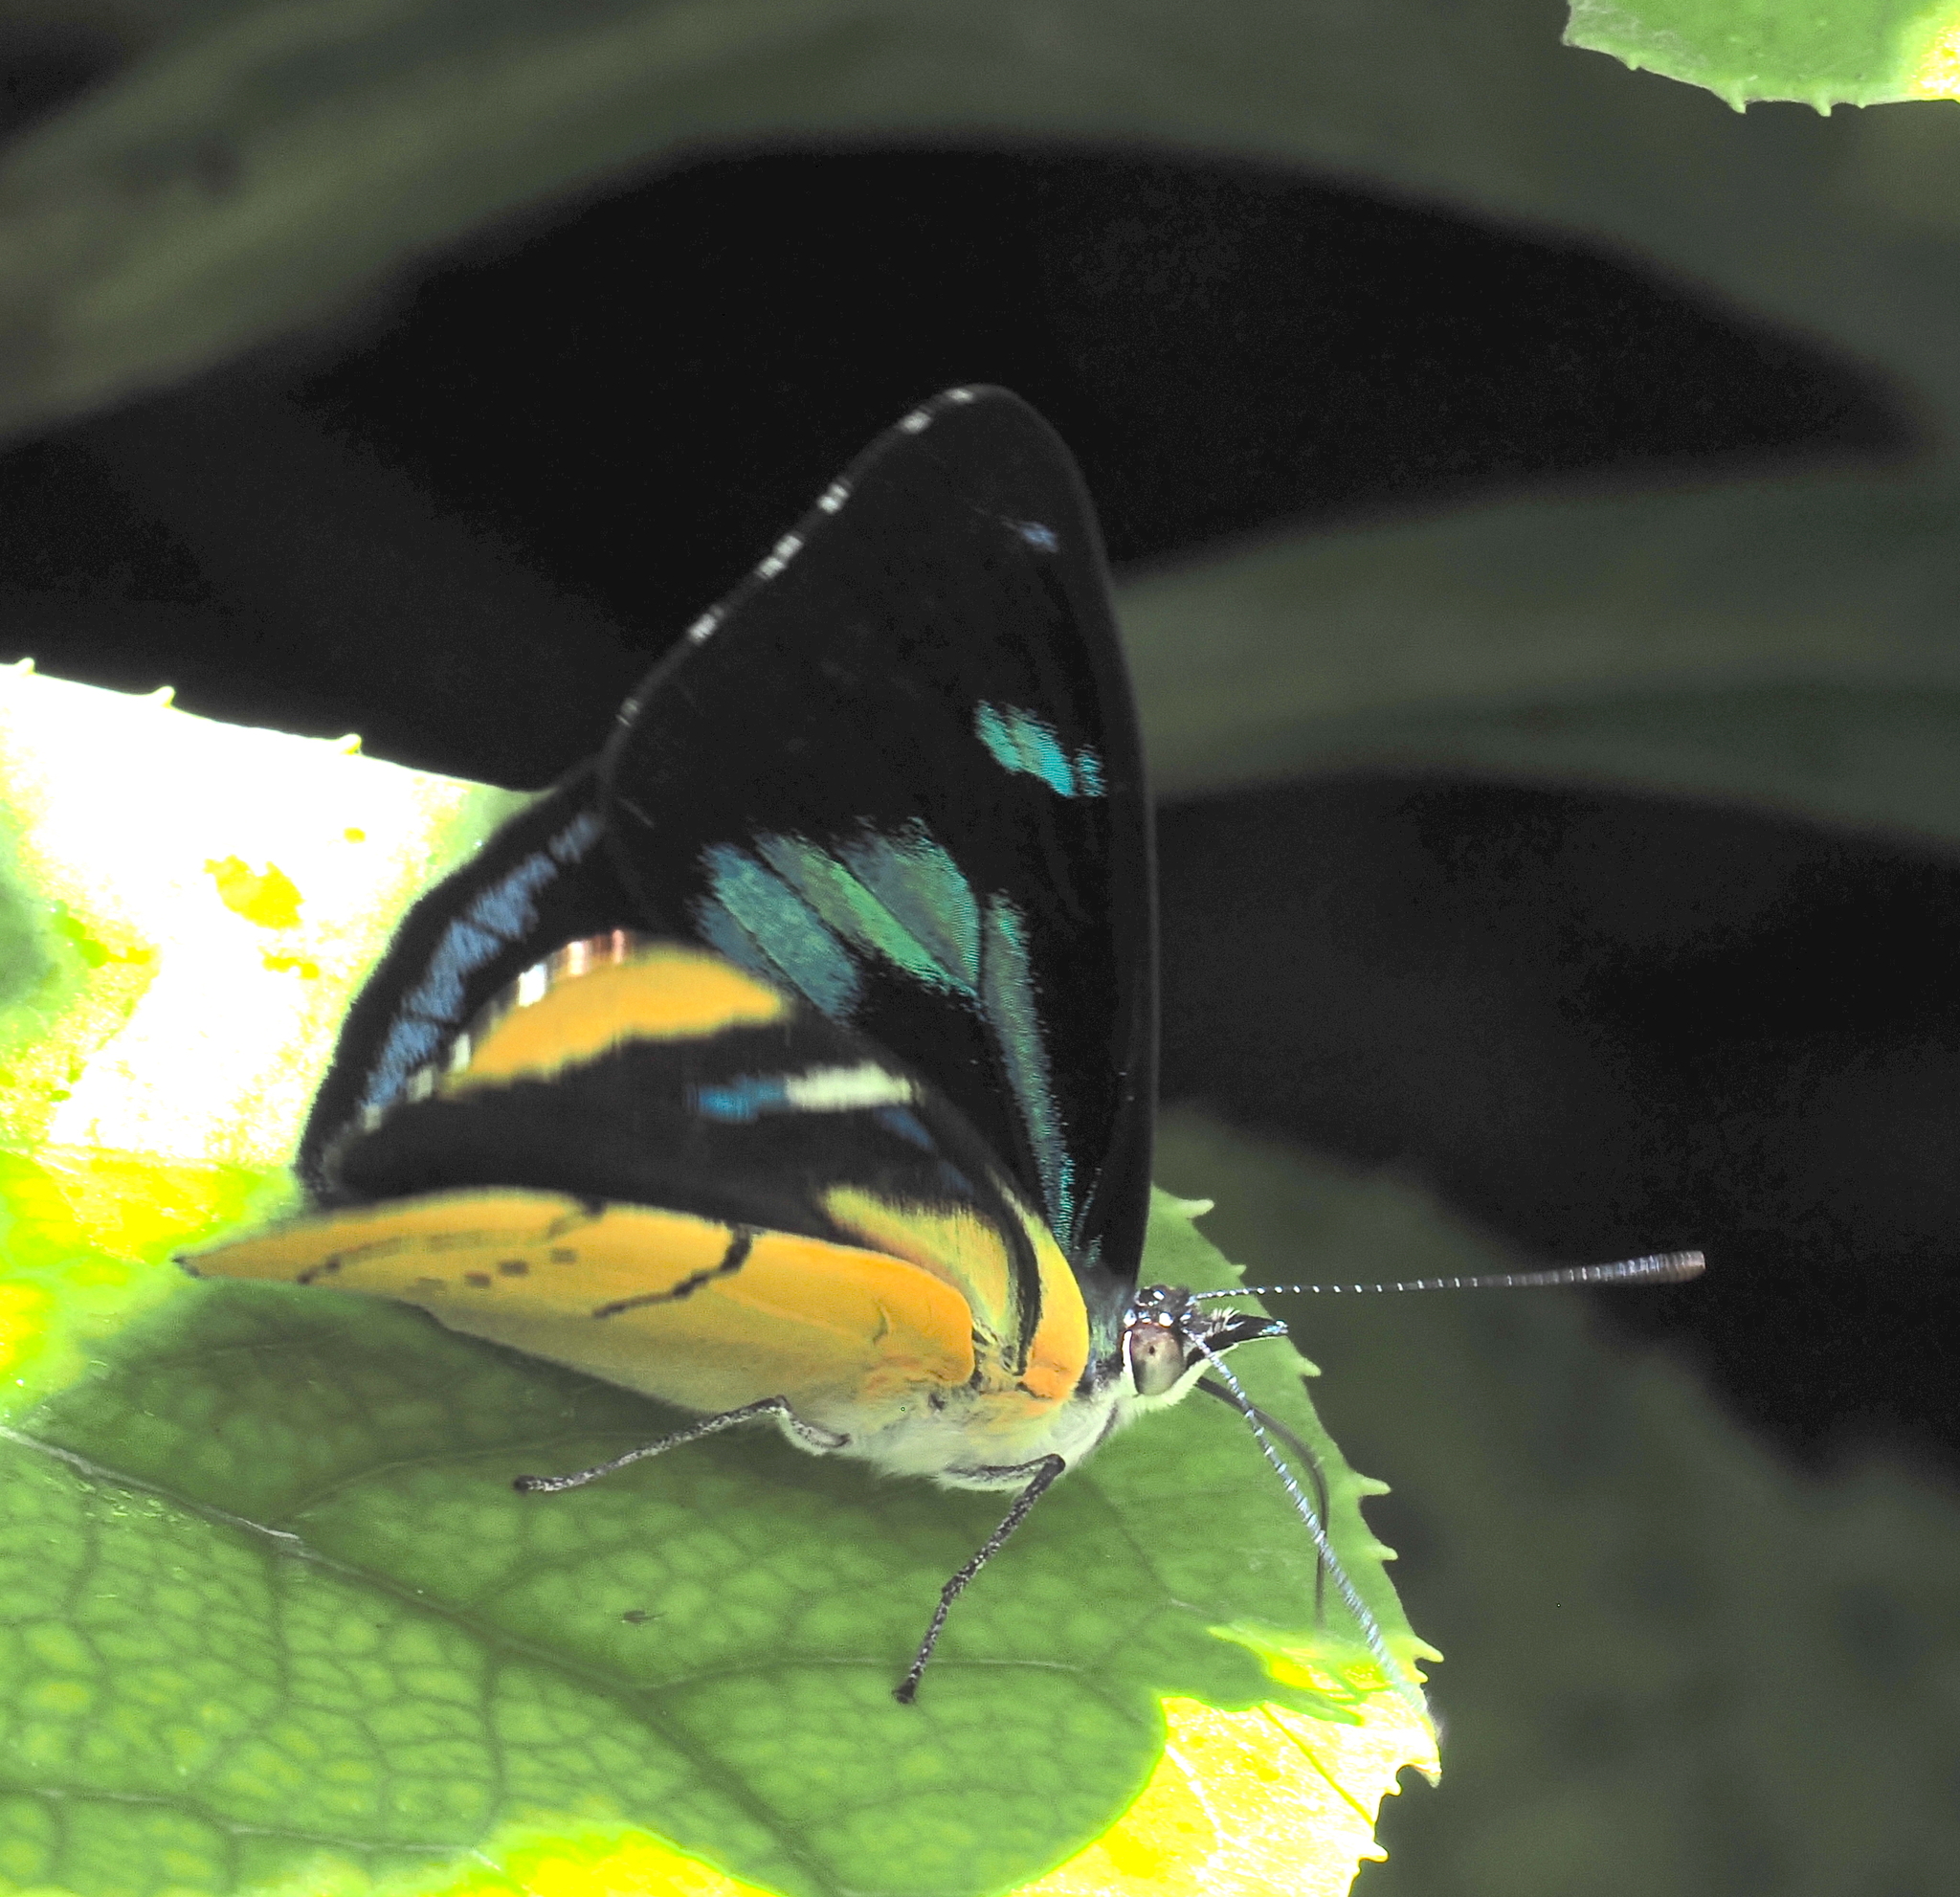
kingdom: Animalia
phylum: Arthropoda
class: Insecta
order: Lepidoptera
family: Nymphalidae
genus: Perisama
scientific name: Perisama vitringa
